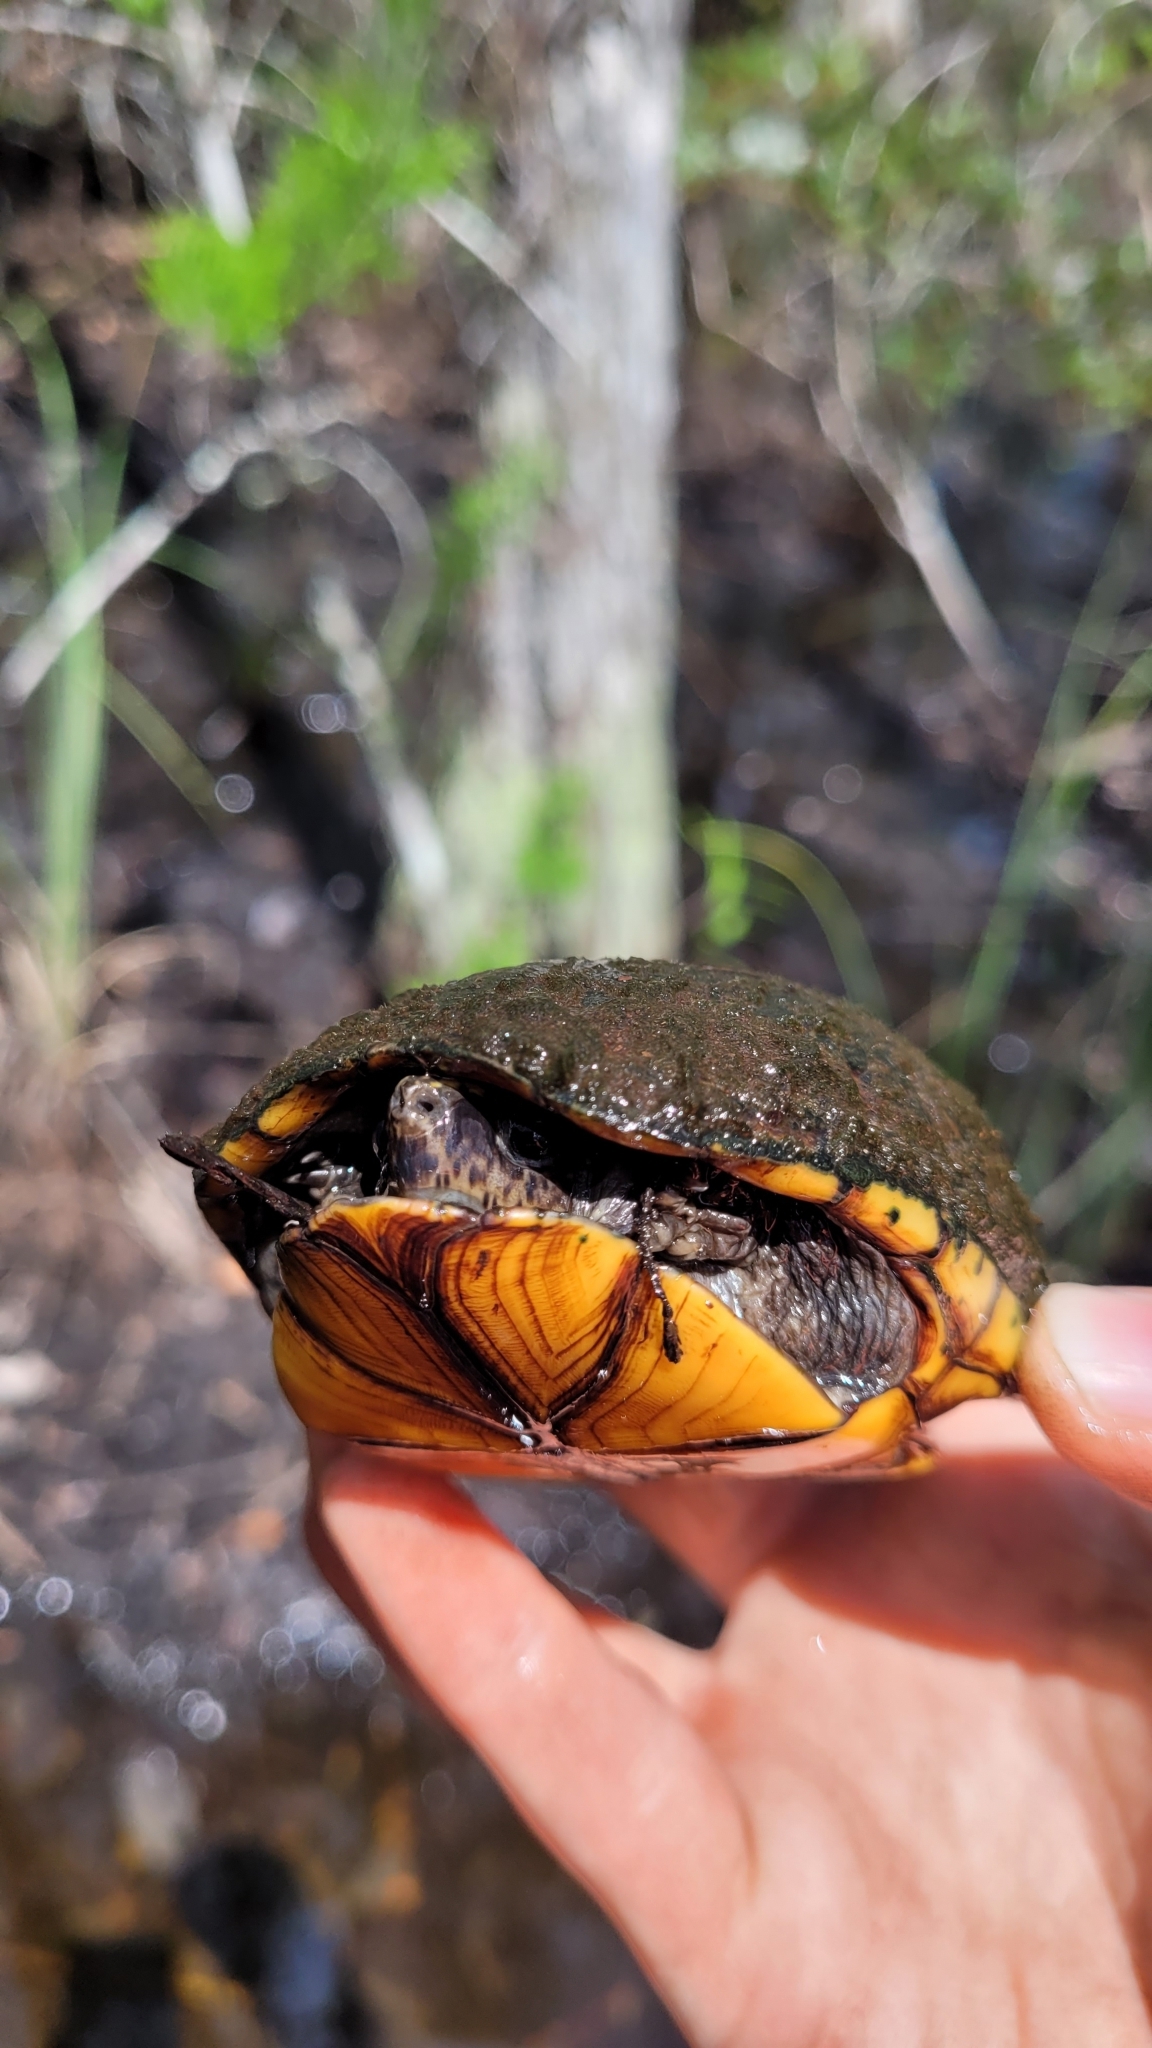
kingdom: Animalia
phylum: Chordata
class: Testudines
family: Kinosternidae
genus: Kinosternon
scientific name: Kinosternon baurii
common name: Striped mud turtle
